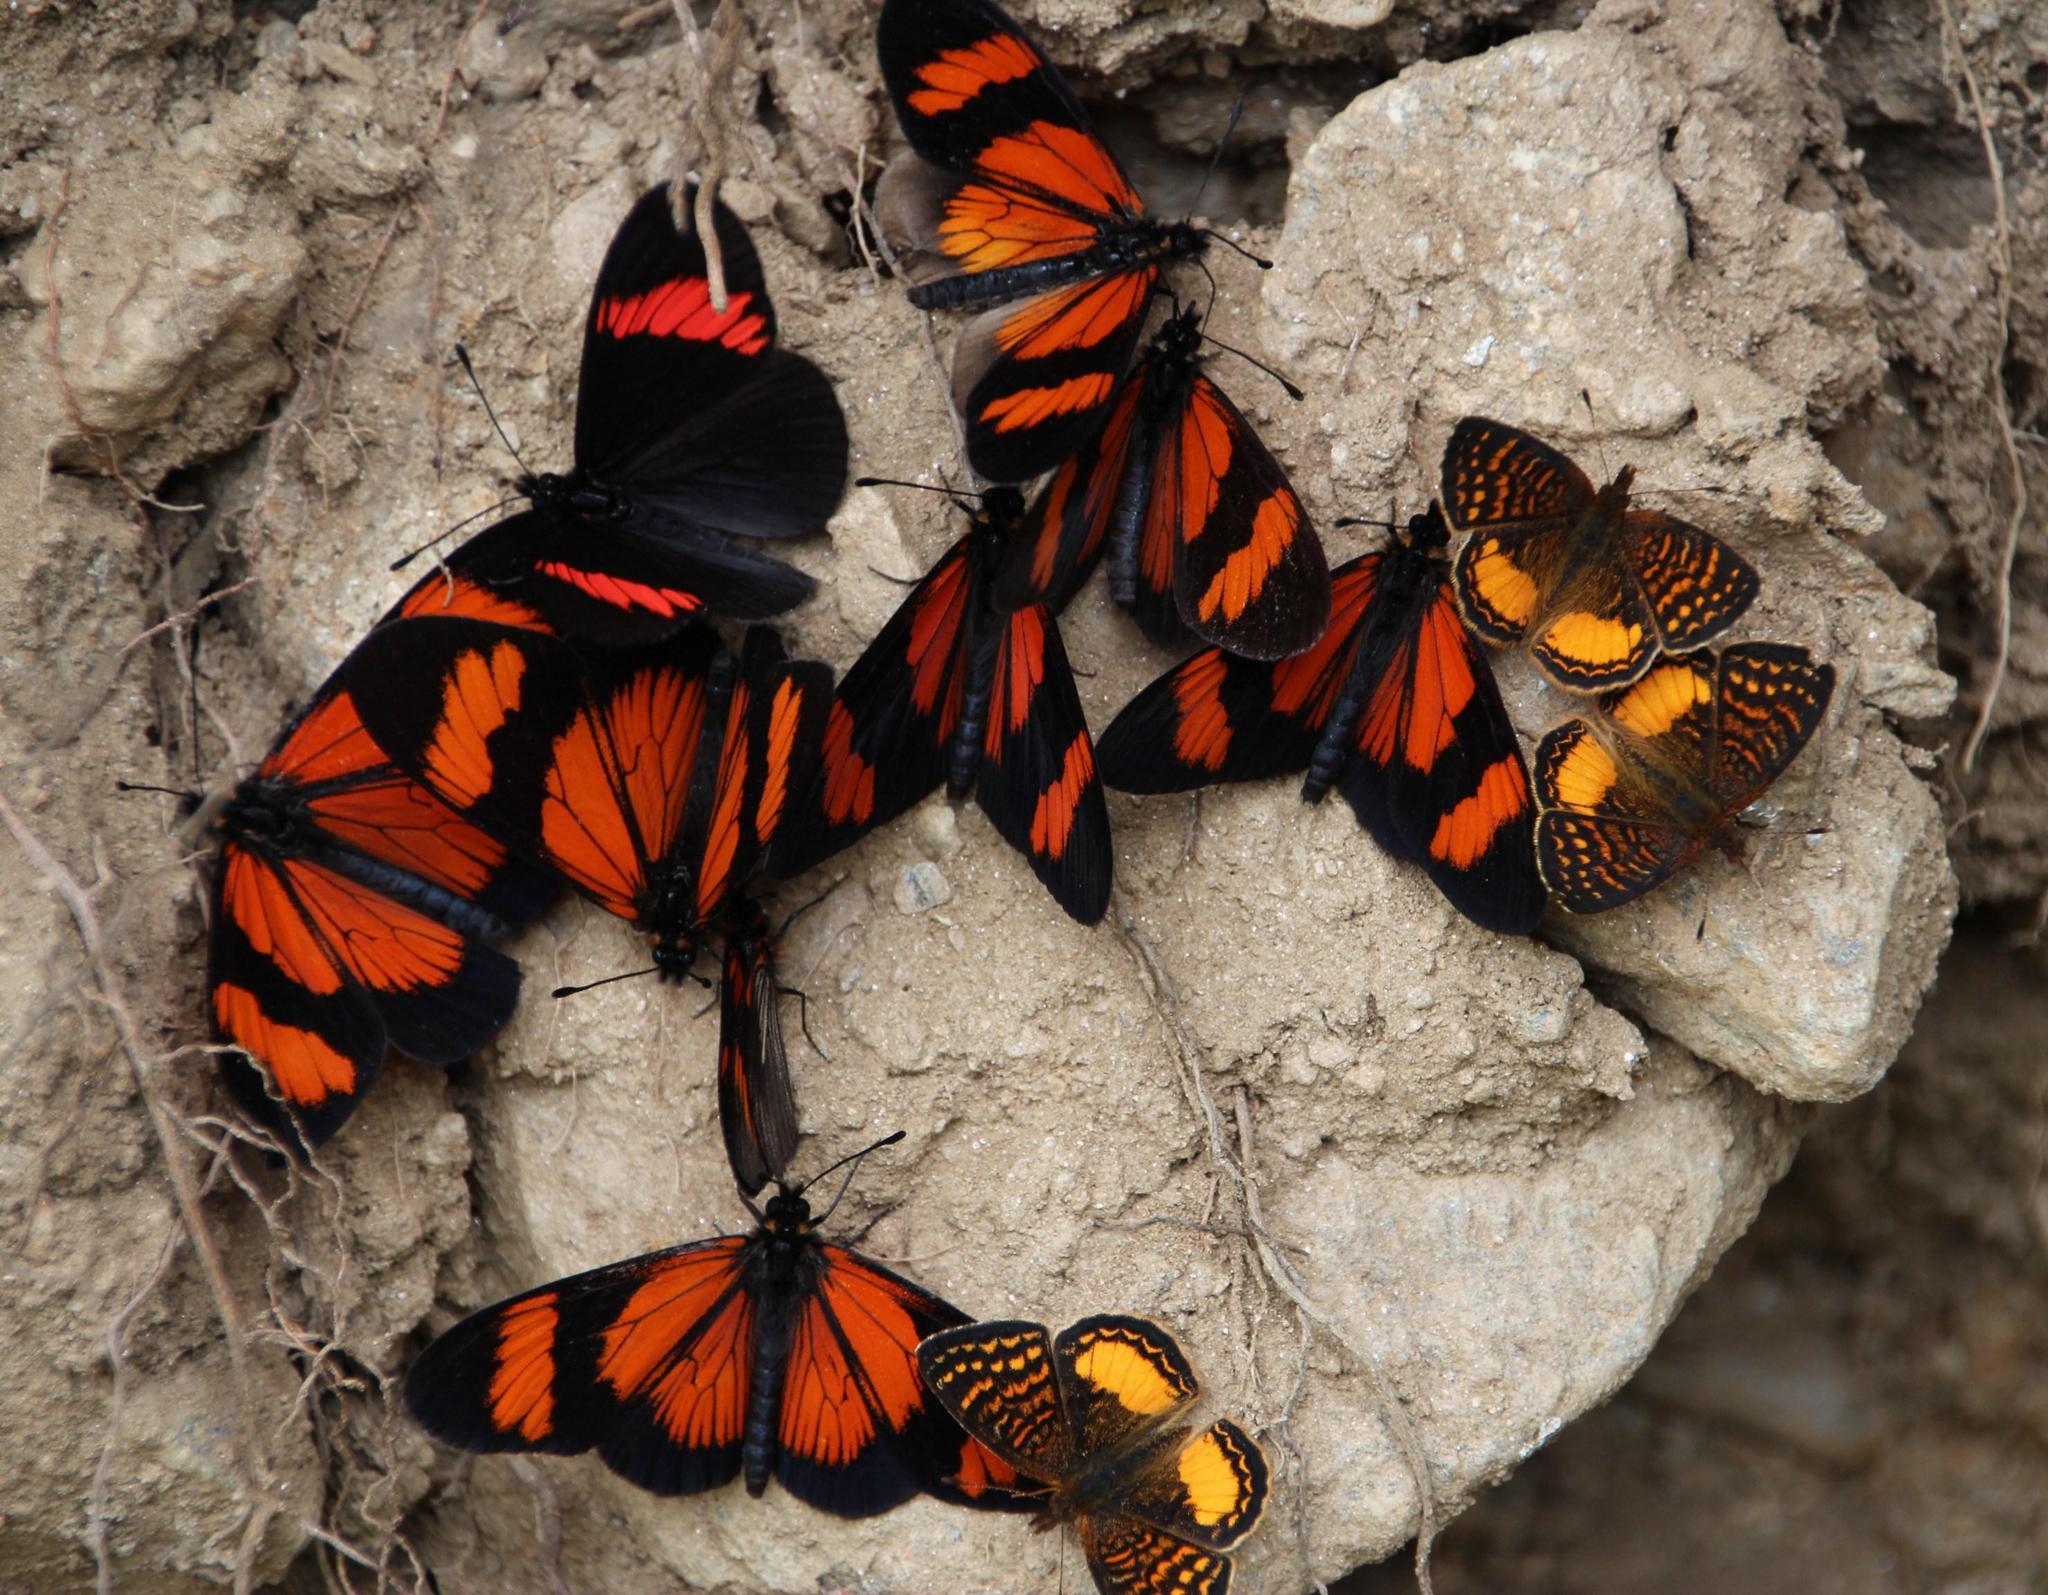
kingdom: Animalia
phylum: Arthropoda
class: Insecta
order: Lepidoptera
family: Nymphalidae
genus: Higginsius
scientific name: Higginsius fasciata
